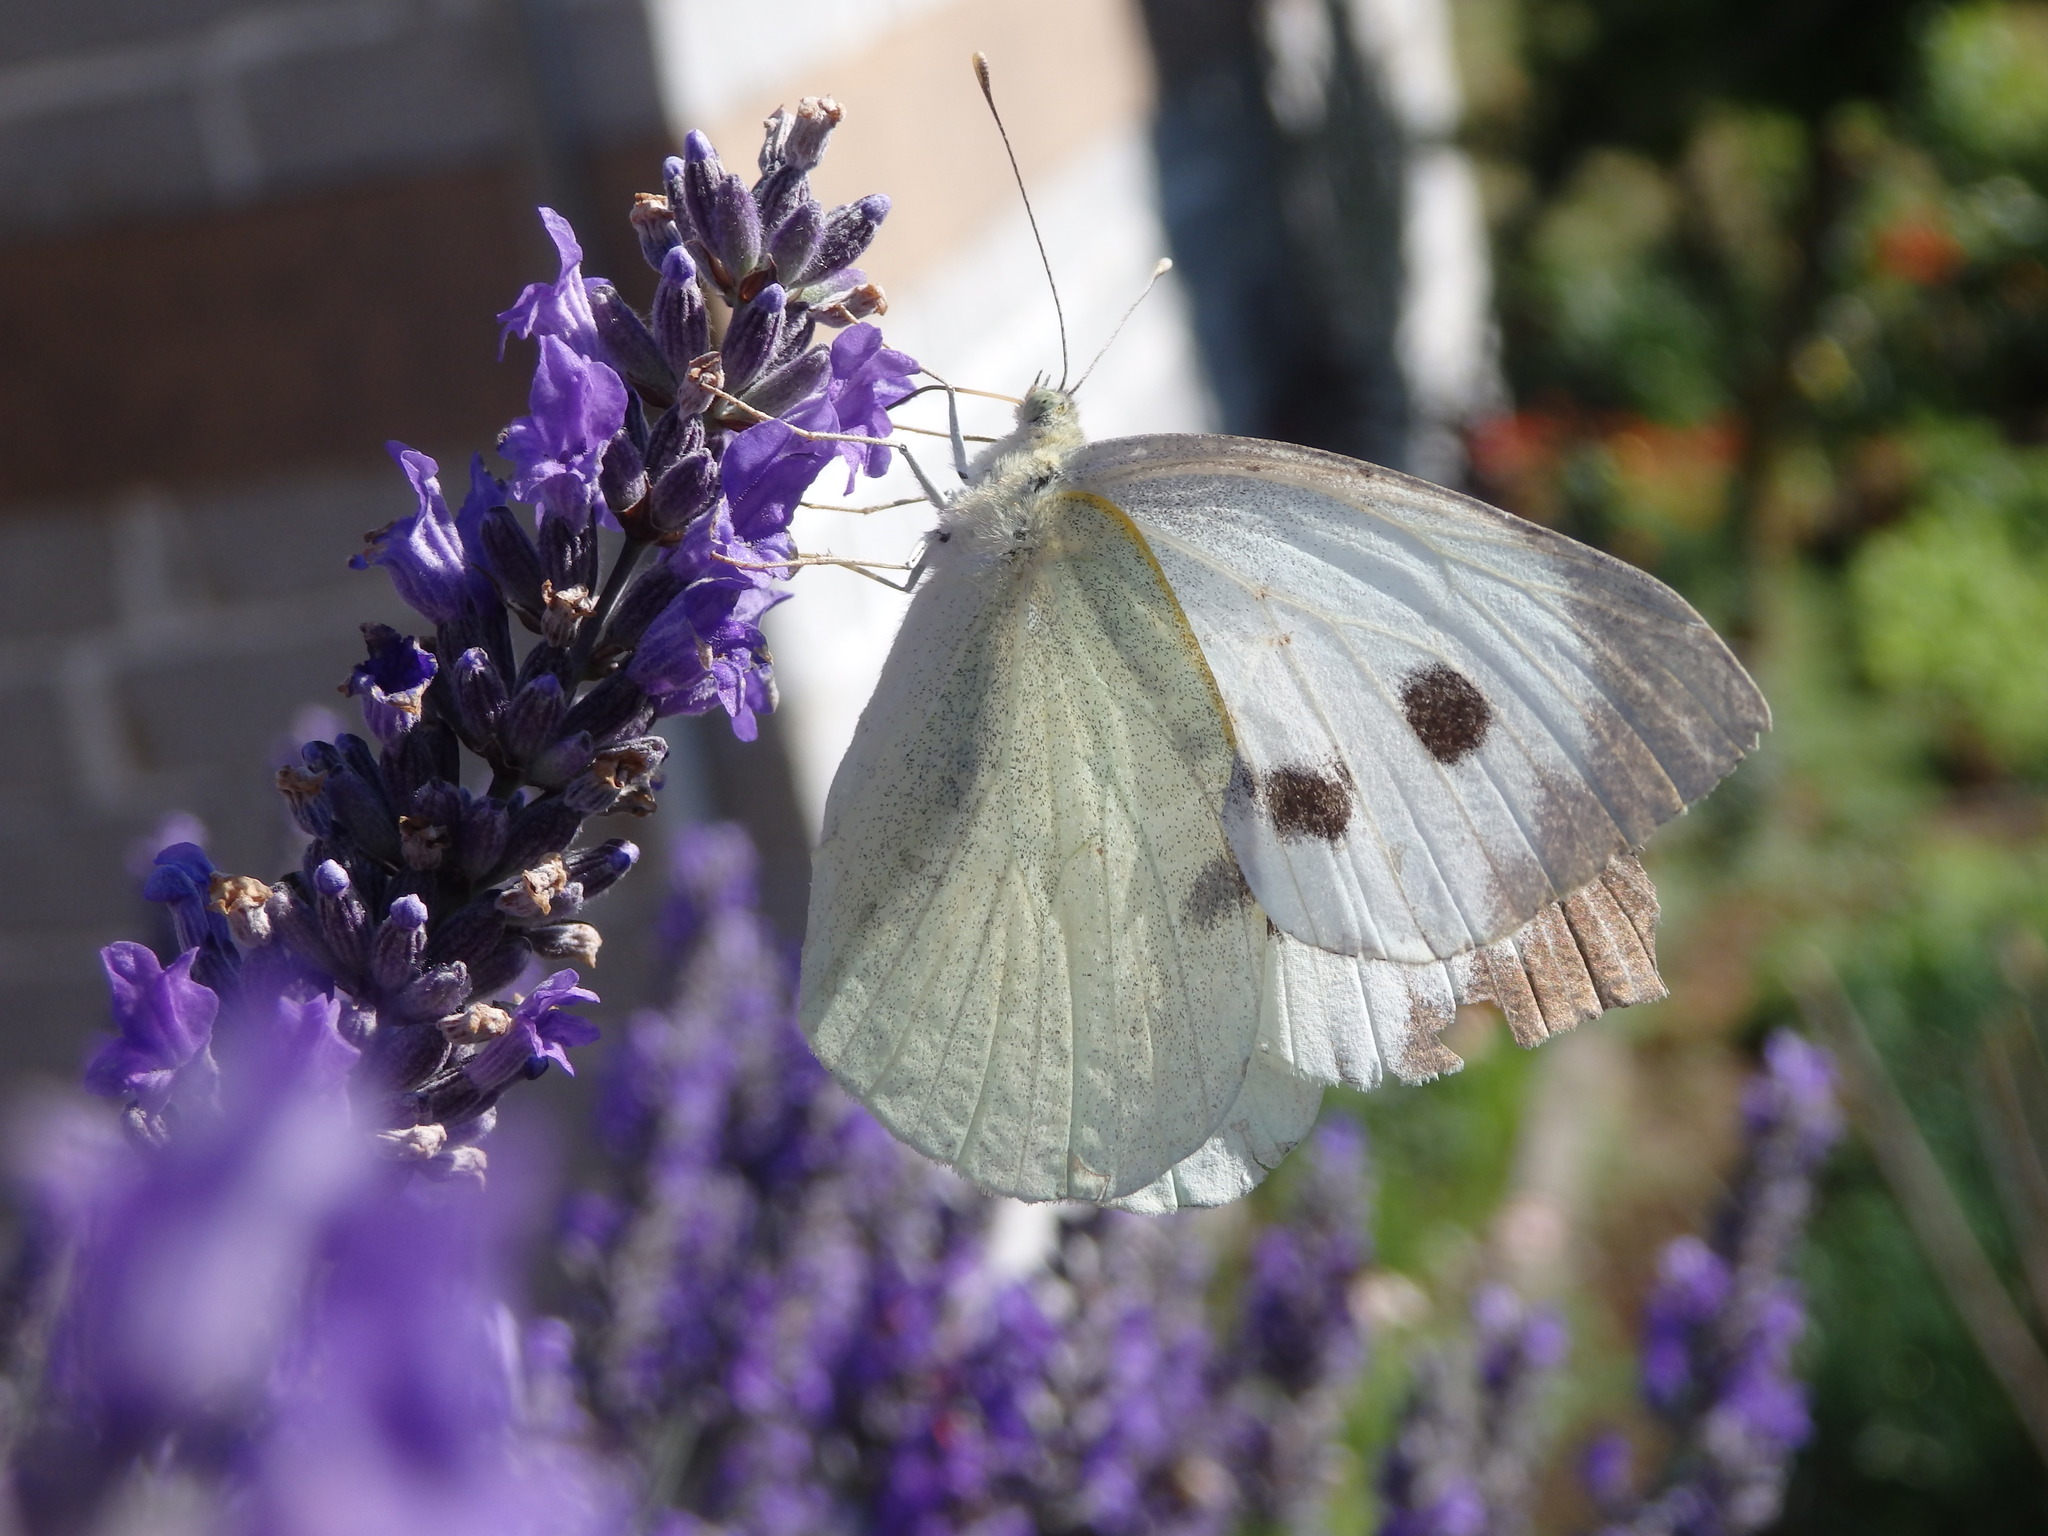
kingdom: Animalia
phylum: Arthropoda
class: Insecta
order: Lepidoptera
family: Pieridae
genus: Pieris
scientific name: Pieris brassicae
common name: Large white
